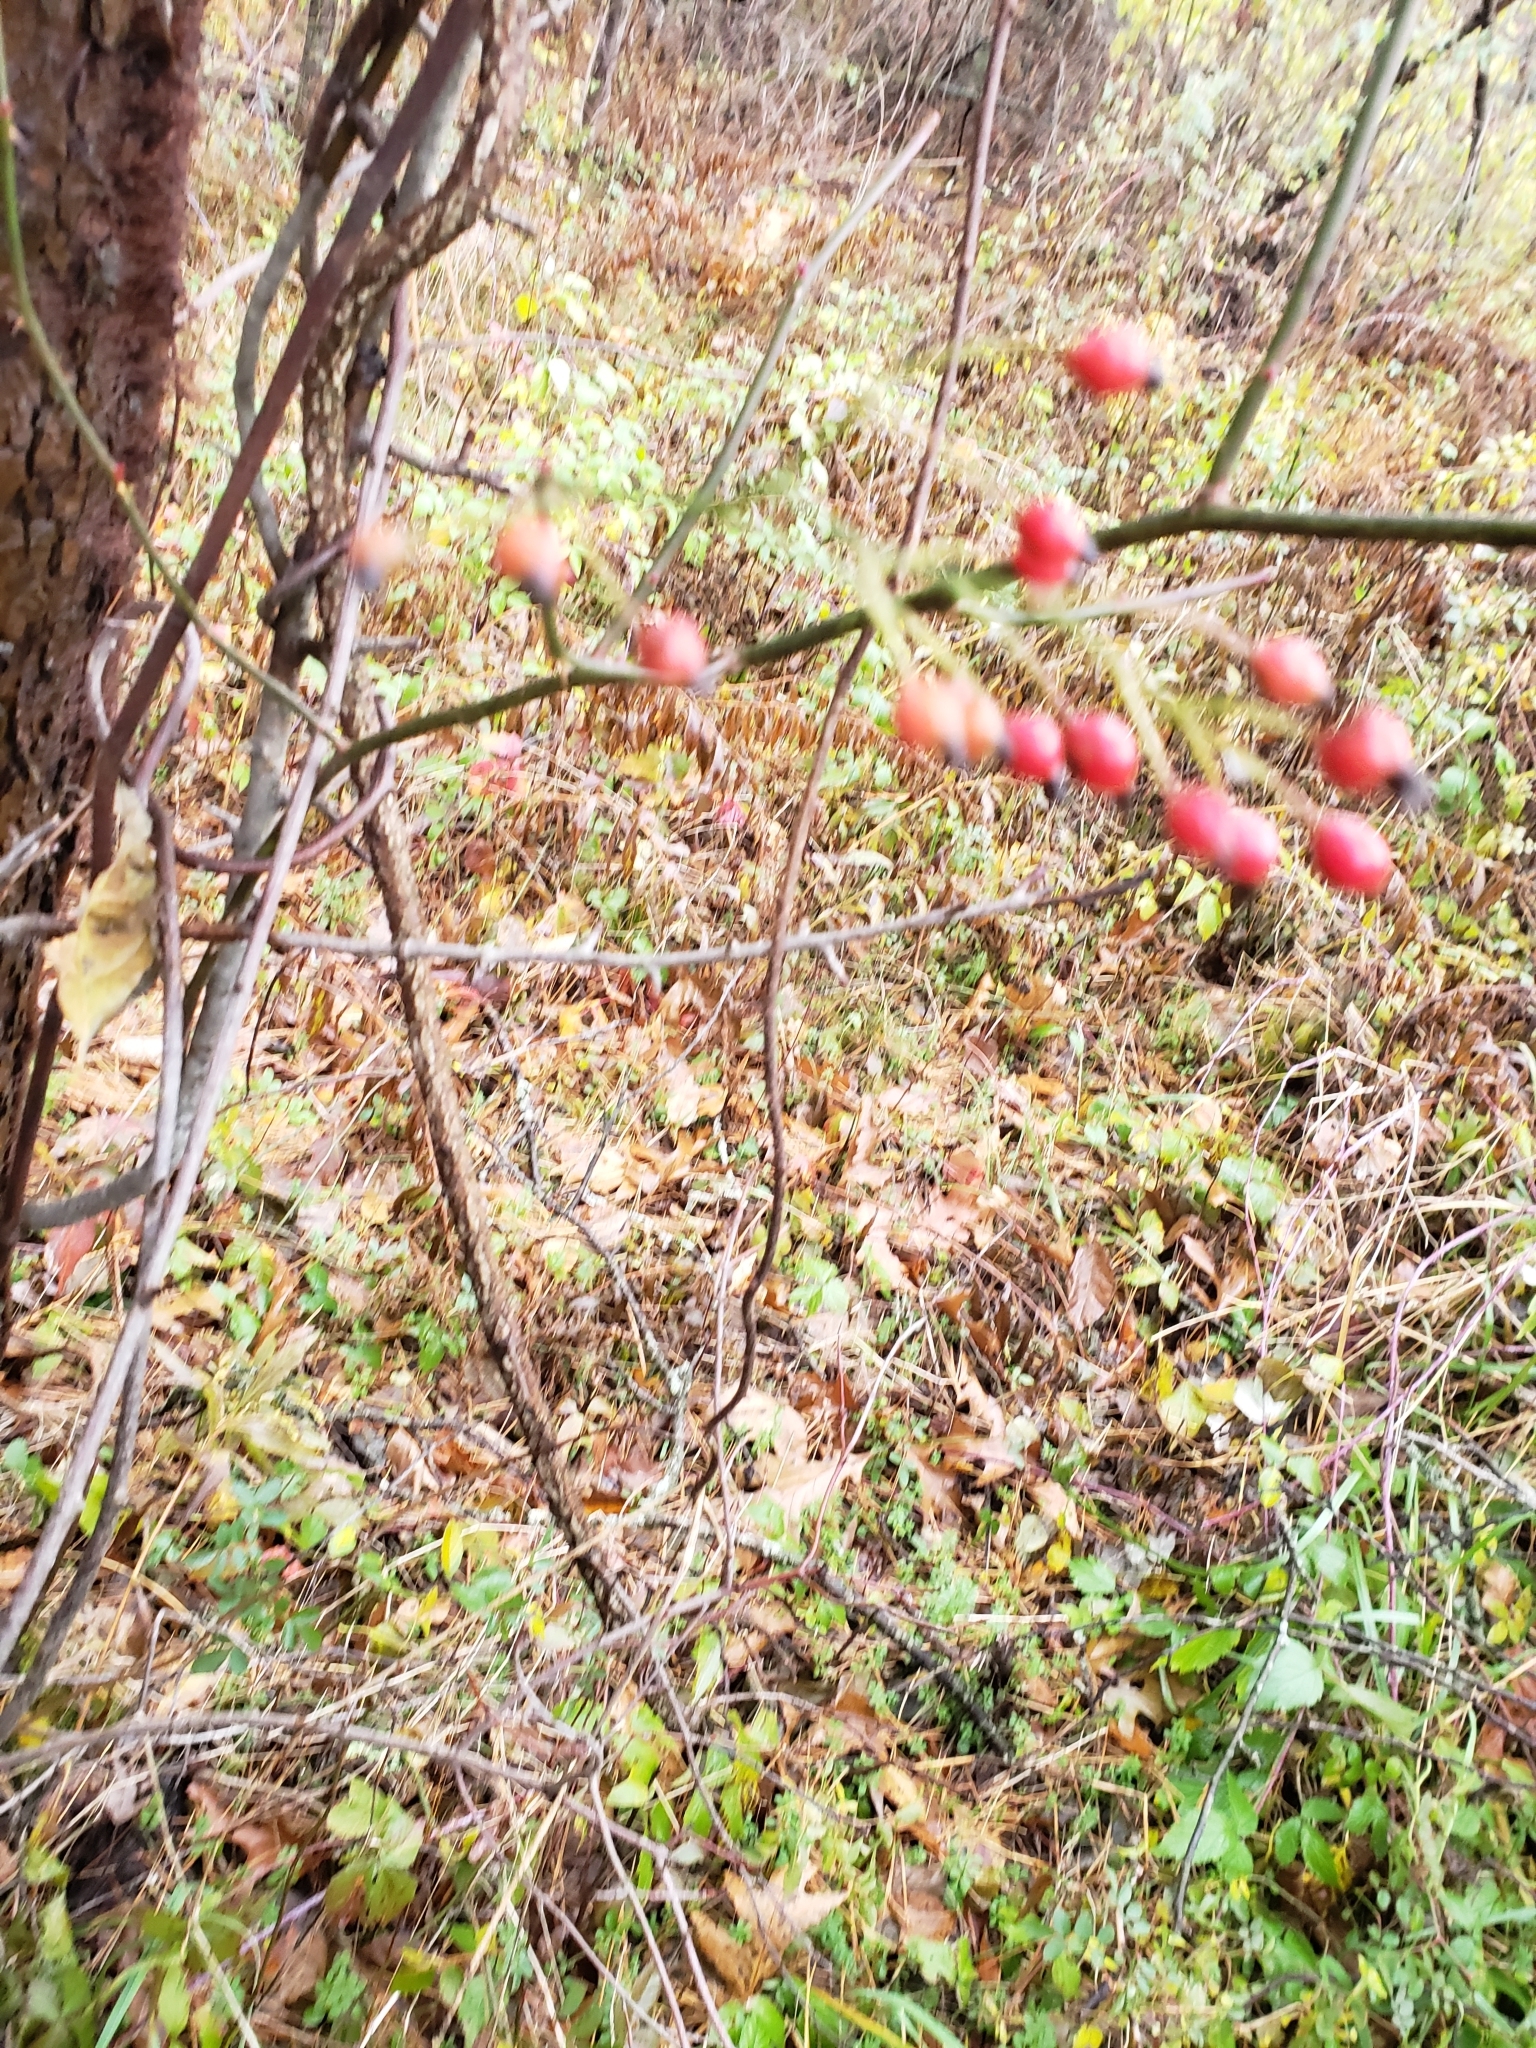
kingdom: Plantae
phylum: Tracheophyta
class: Magnoliopsida
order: Rosales
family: Rosaceae
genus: Rosa
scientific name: Rosa multiflora
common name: Multiflora rose
